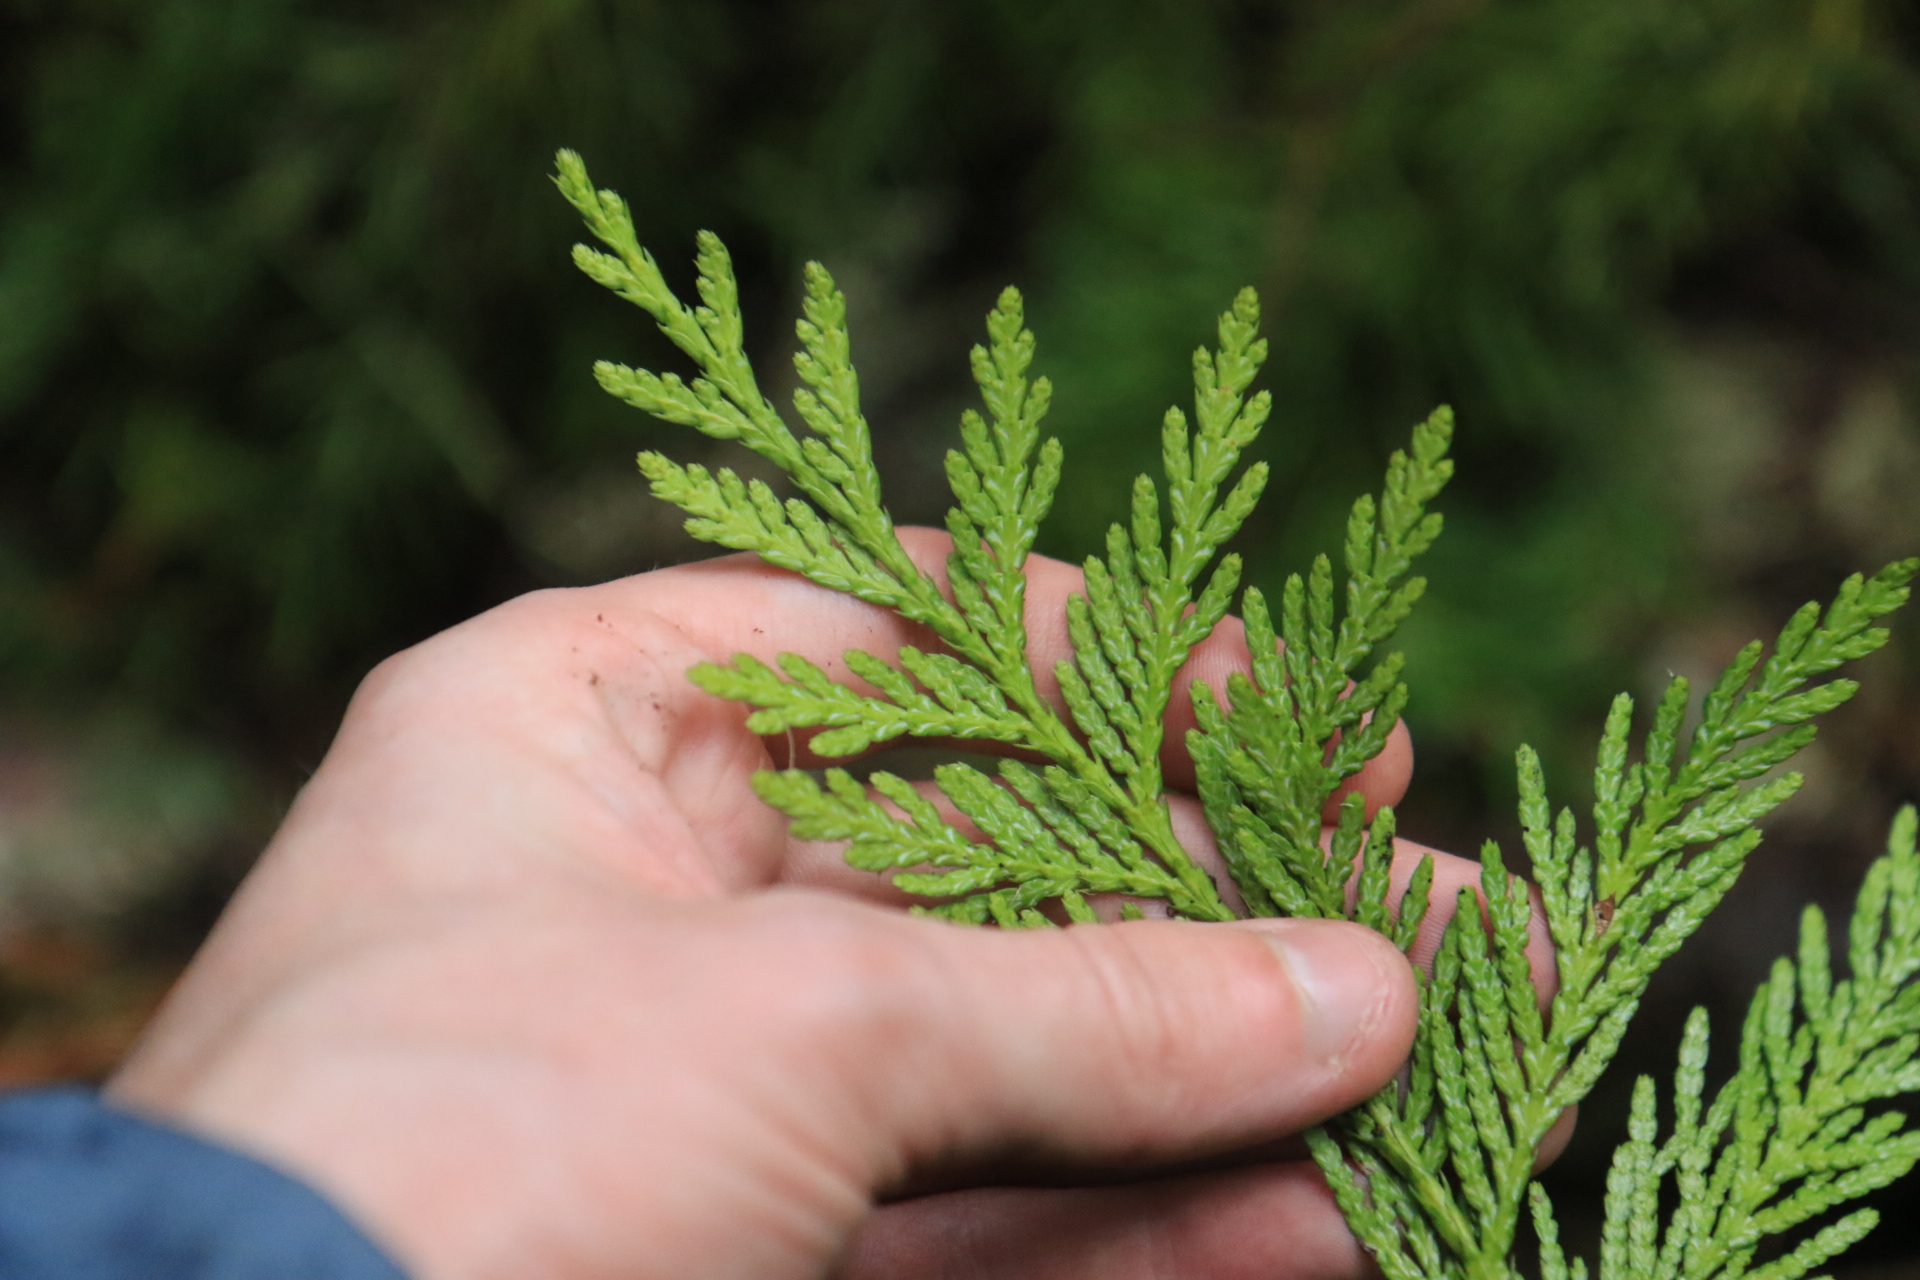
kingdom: Plantae
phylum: Tracheophyta
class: Pinopsida
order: Pinales
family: Cupressaceae
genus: Thuja
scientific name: Thuja plicata
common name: Western red-cedar
